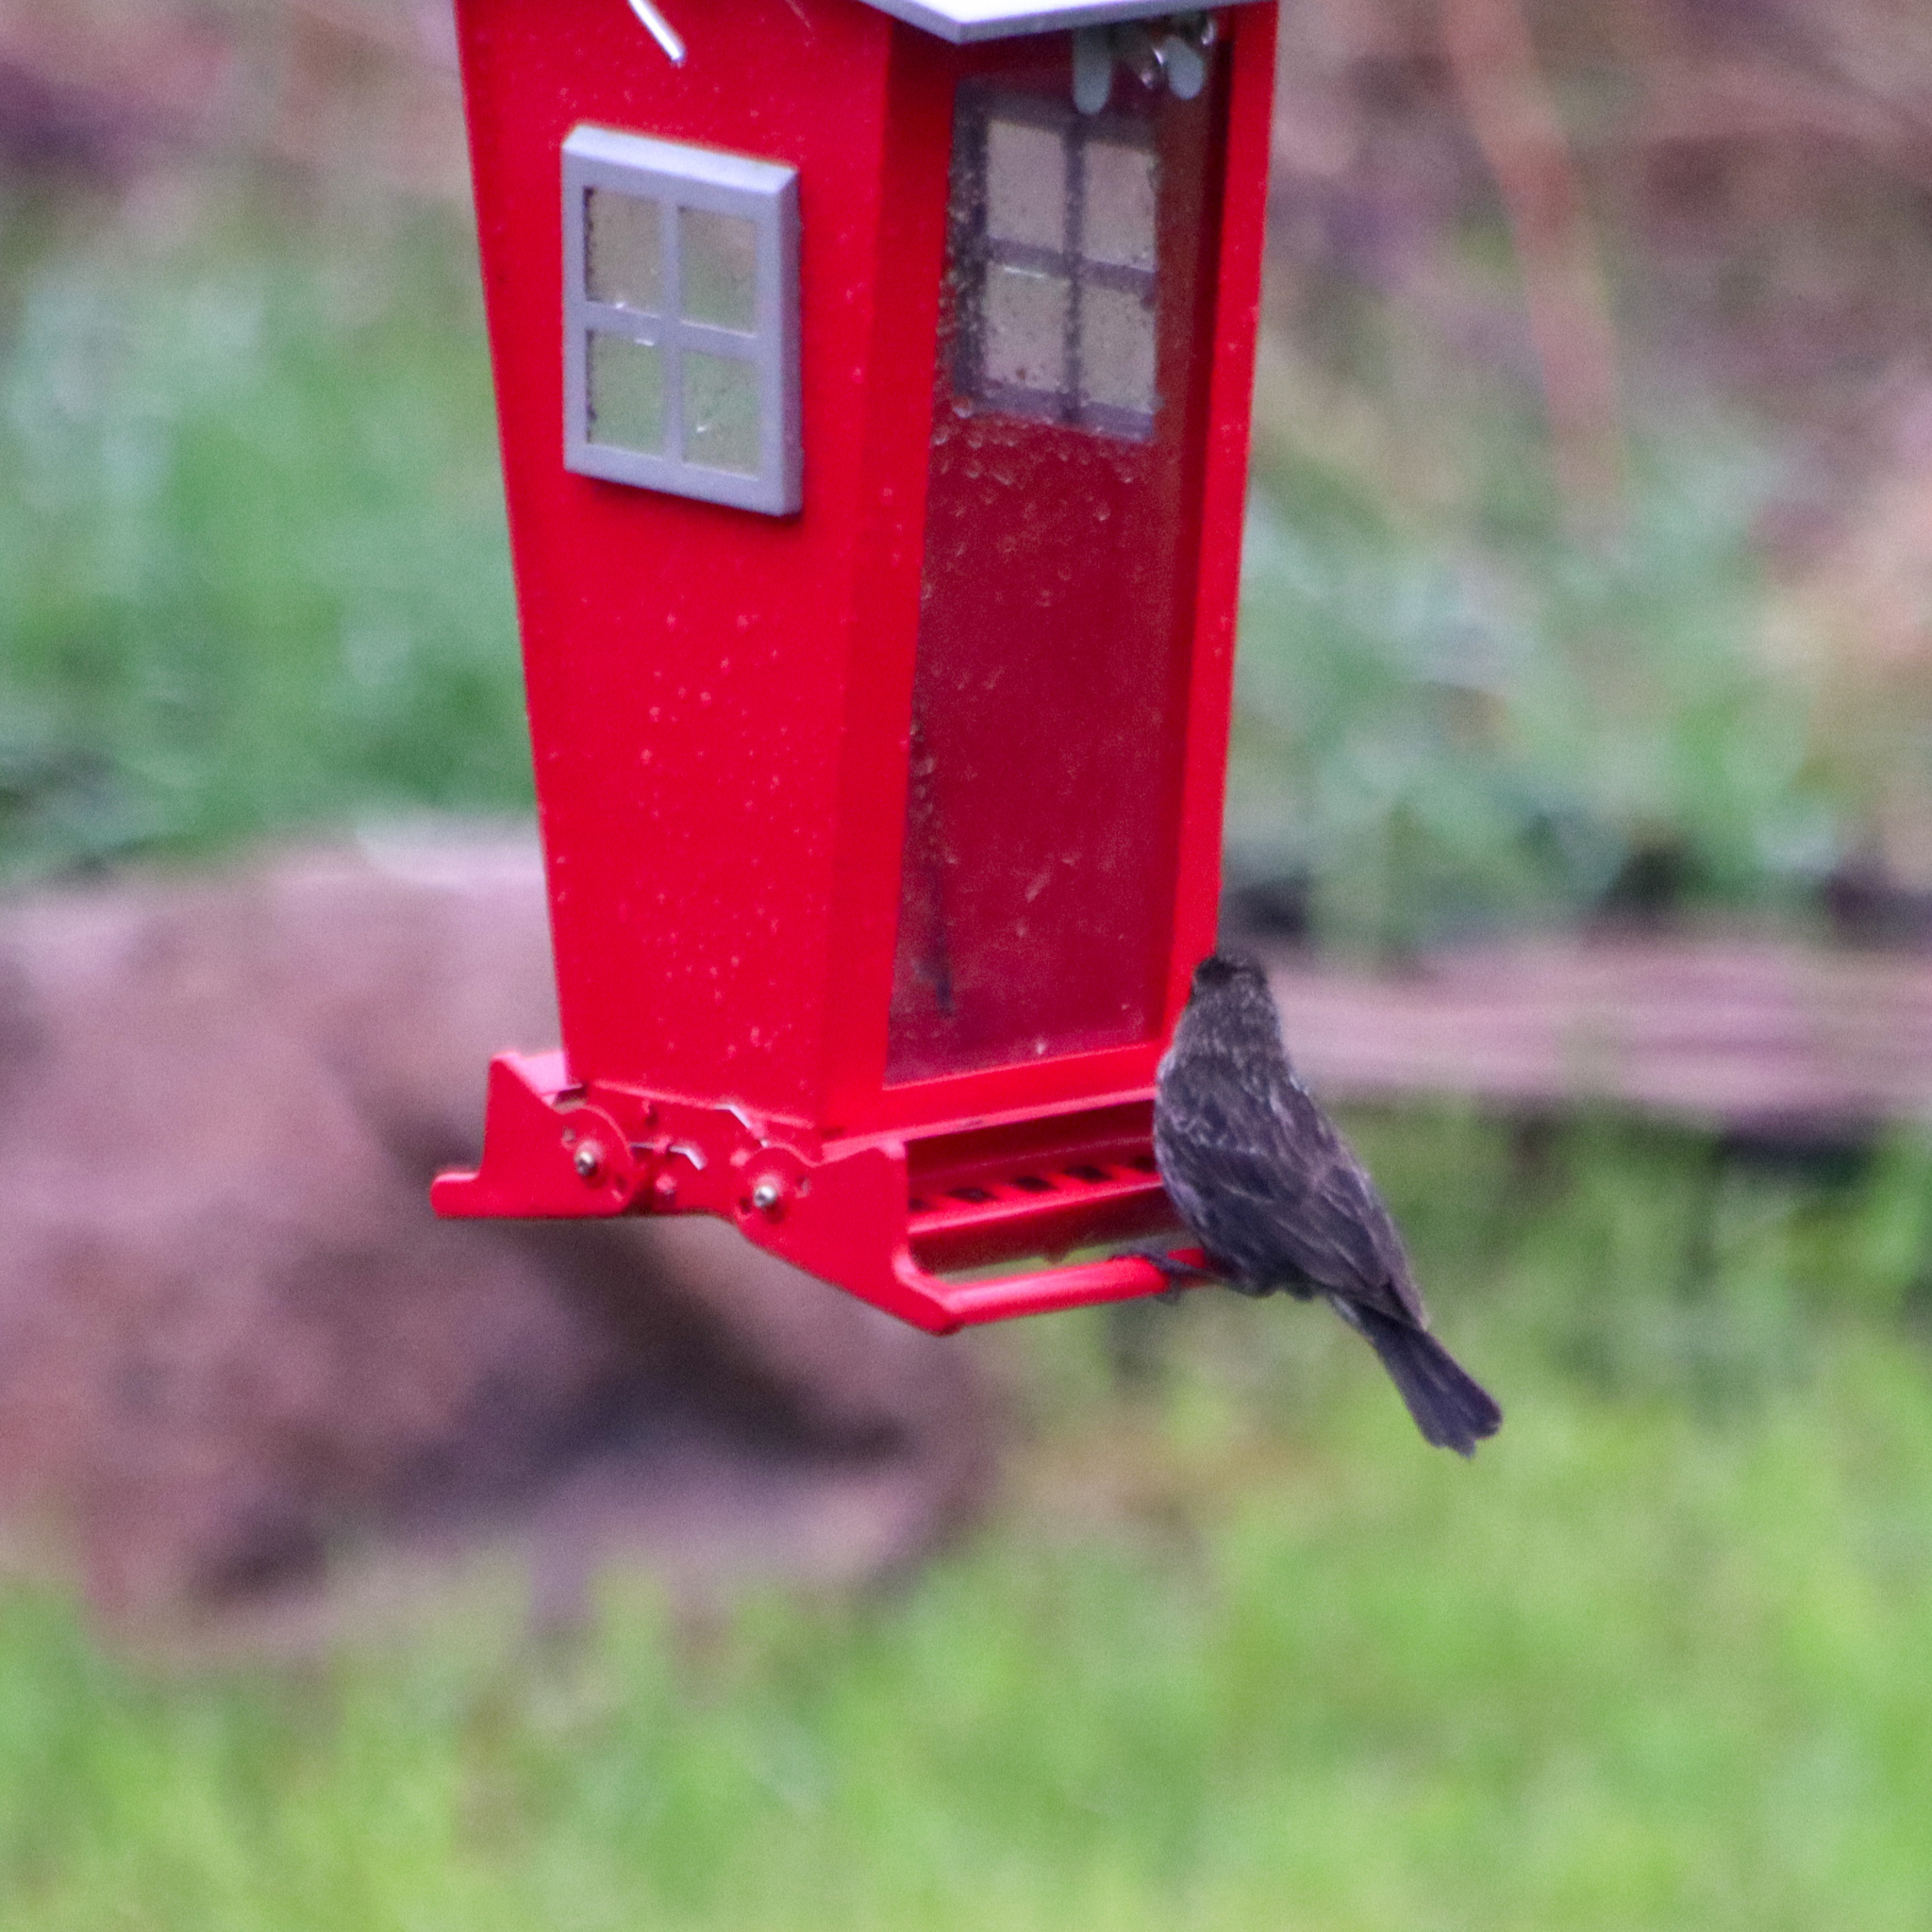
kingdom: Animalia
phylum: Chordata
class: Aves
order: Passeriformes
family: Icteridae
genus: Agelaius
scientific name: Agelaius phoeniceus
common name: Red-winged blackbird
